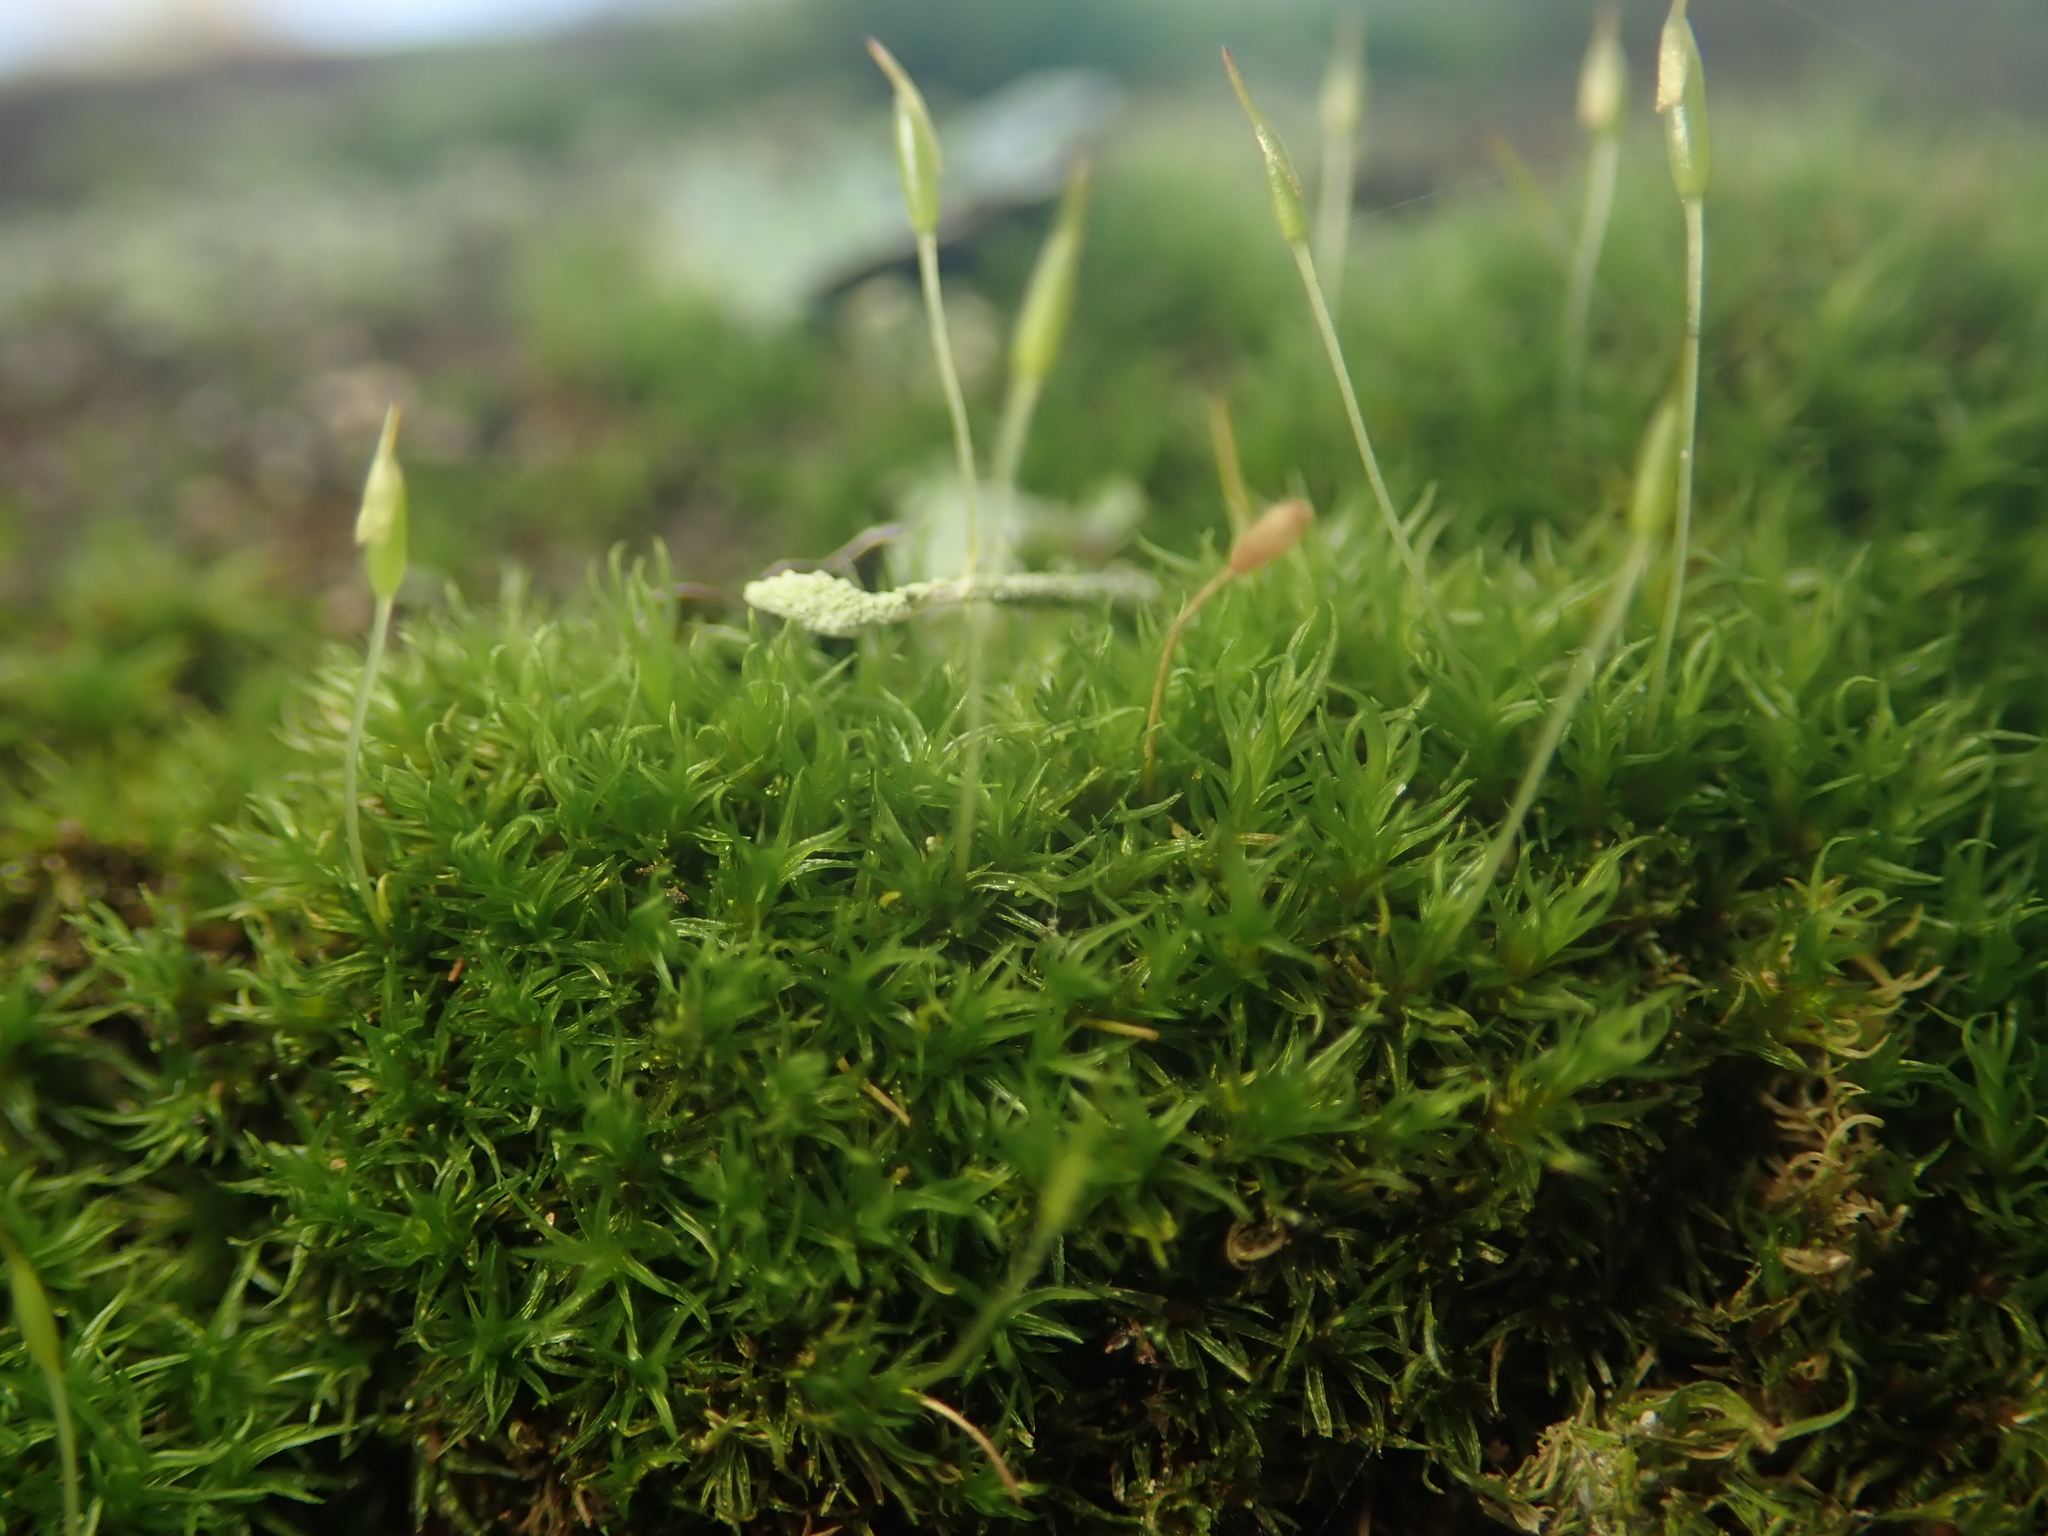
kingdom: Plantae
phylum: Bryophyta
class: Bryopsida
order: Dicranales
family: Rhabdoweisiaceae
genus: Dicranoweisia
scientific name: Dicranoweisia cirrata
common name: Common pincushion
